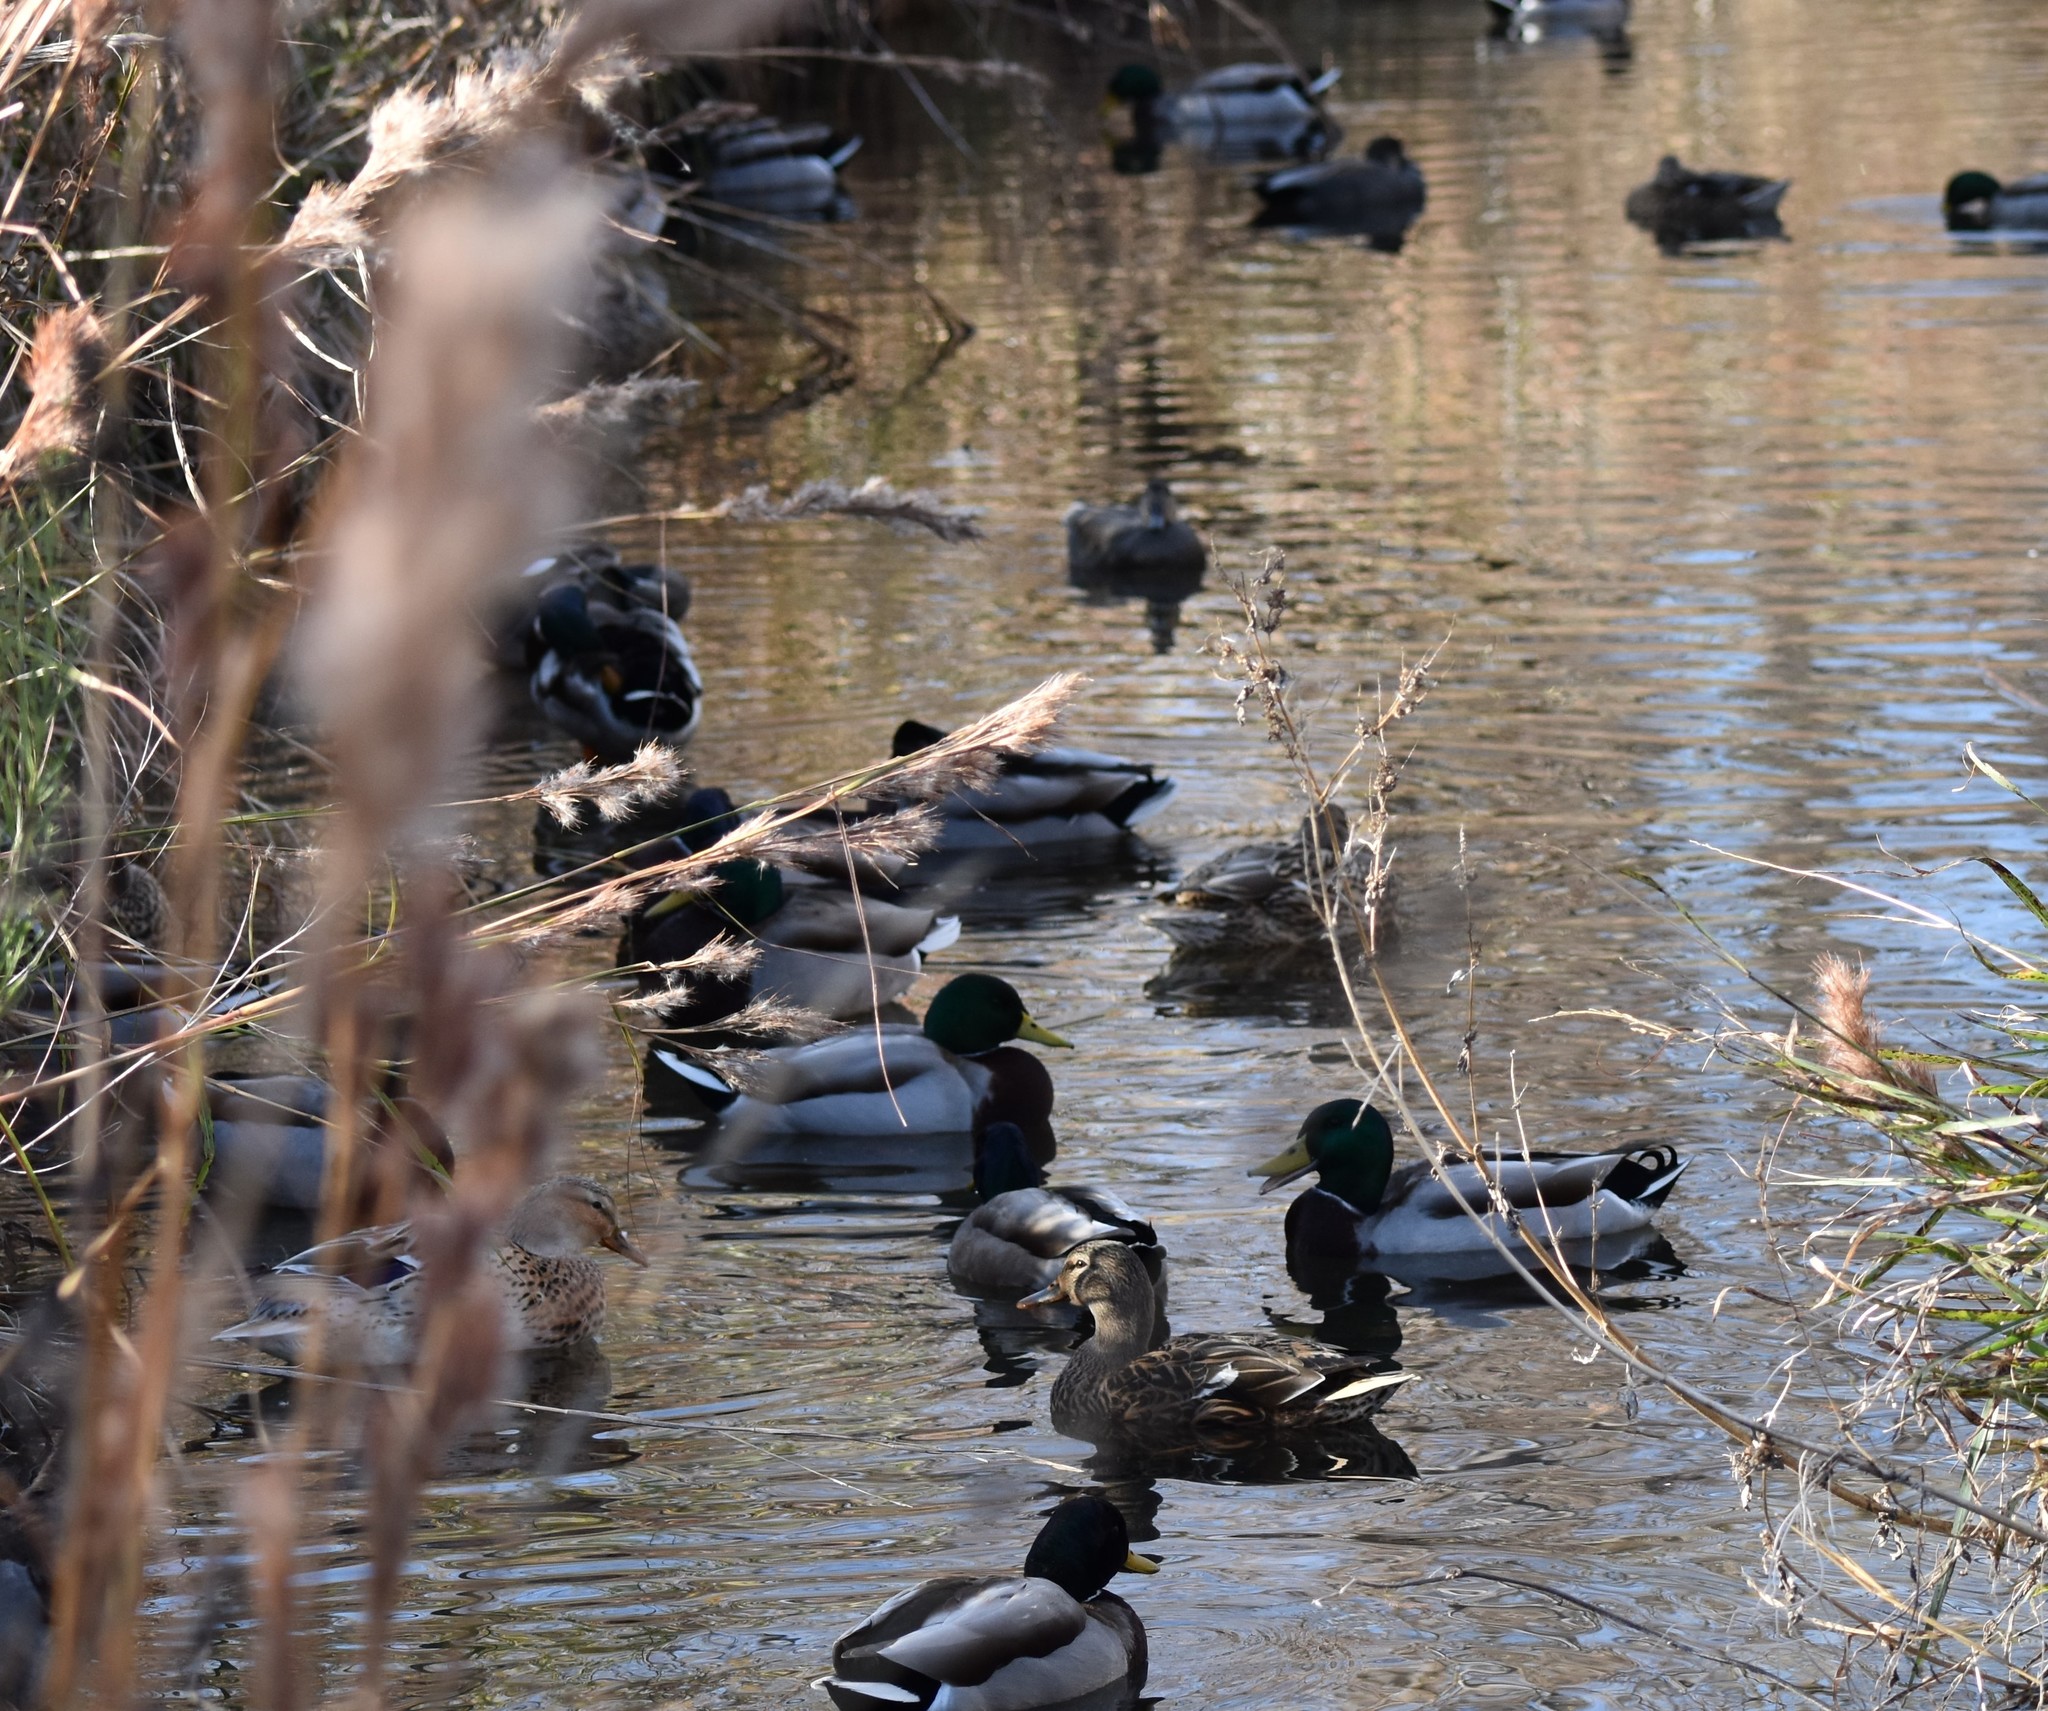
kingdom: Animalia
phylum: Chordata
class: Aves
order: Anseriformes
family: Anatidae
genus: Anas
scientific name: Anas platyrhynchos
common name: Mallard
